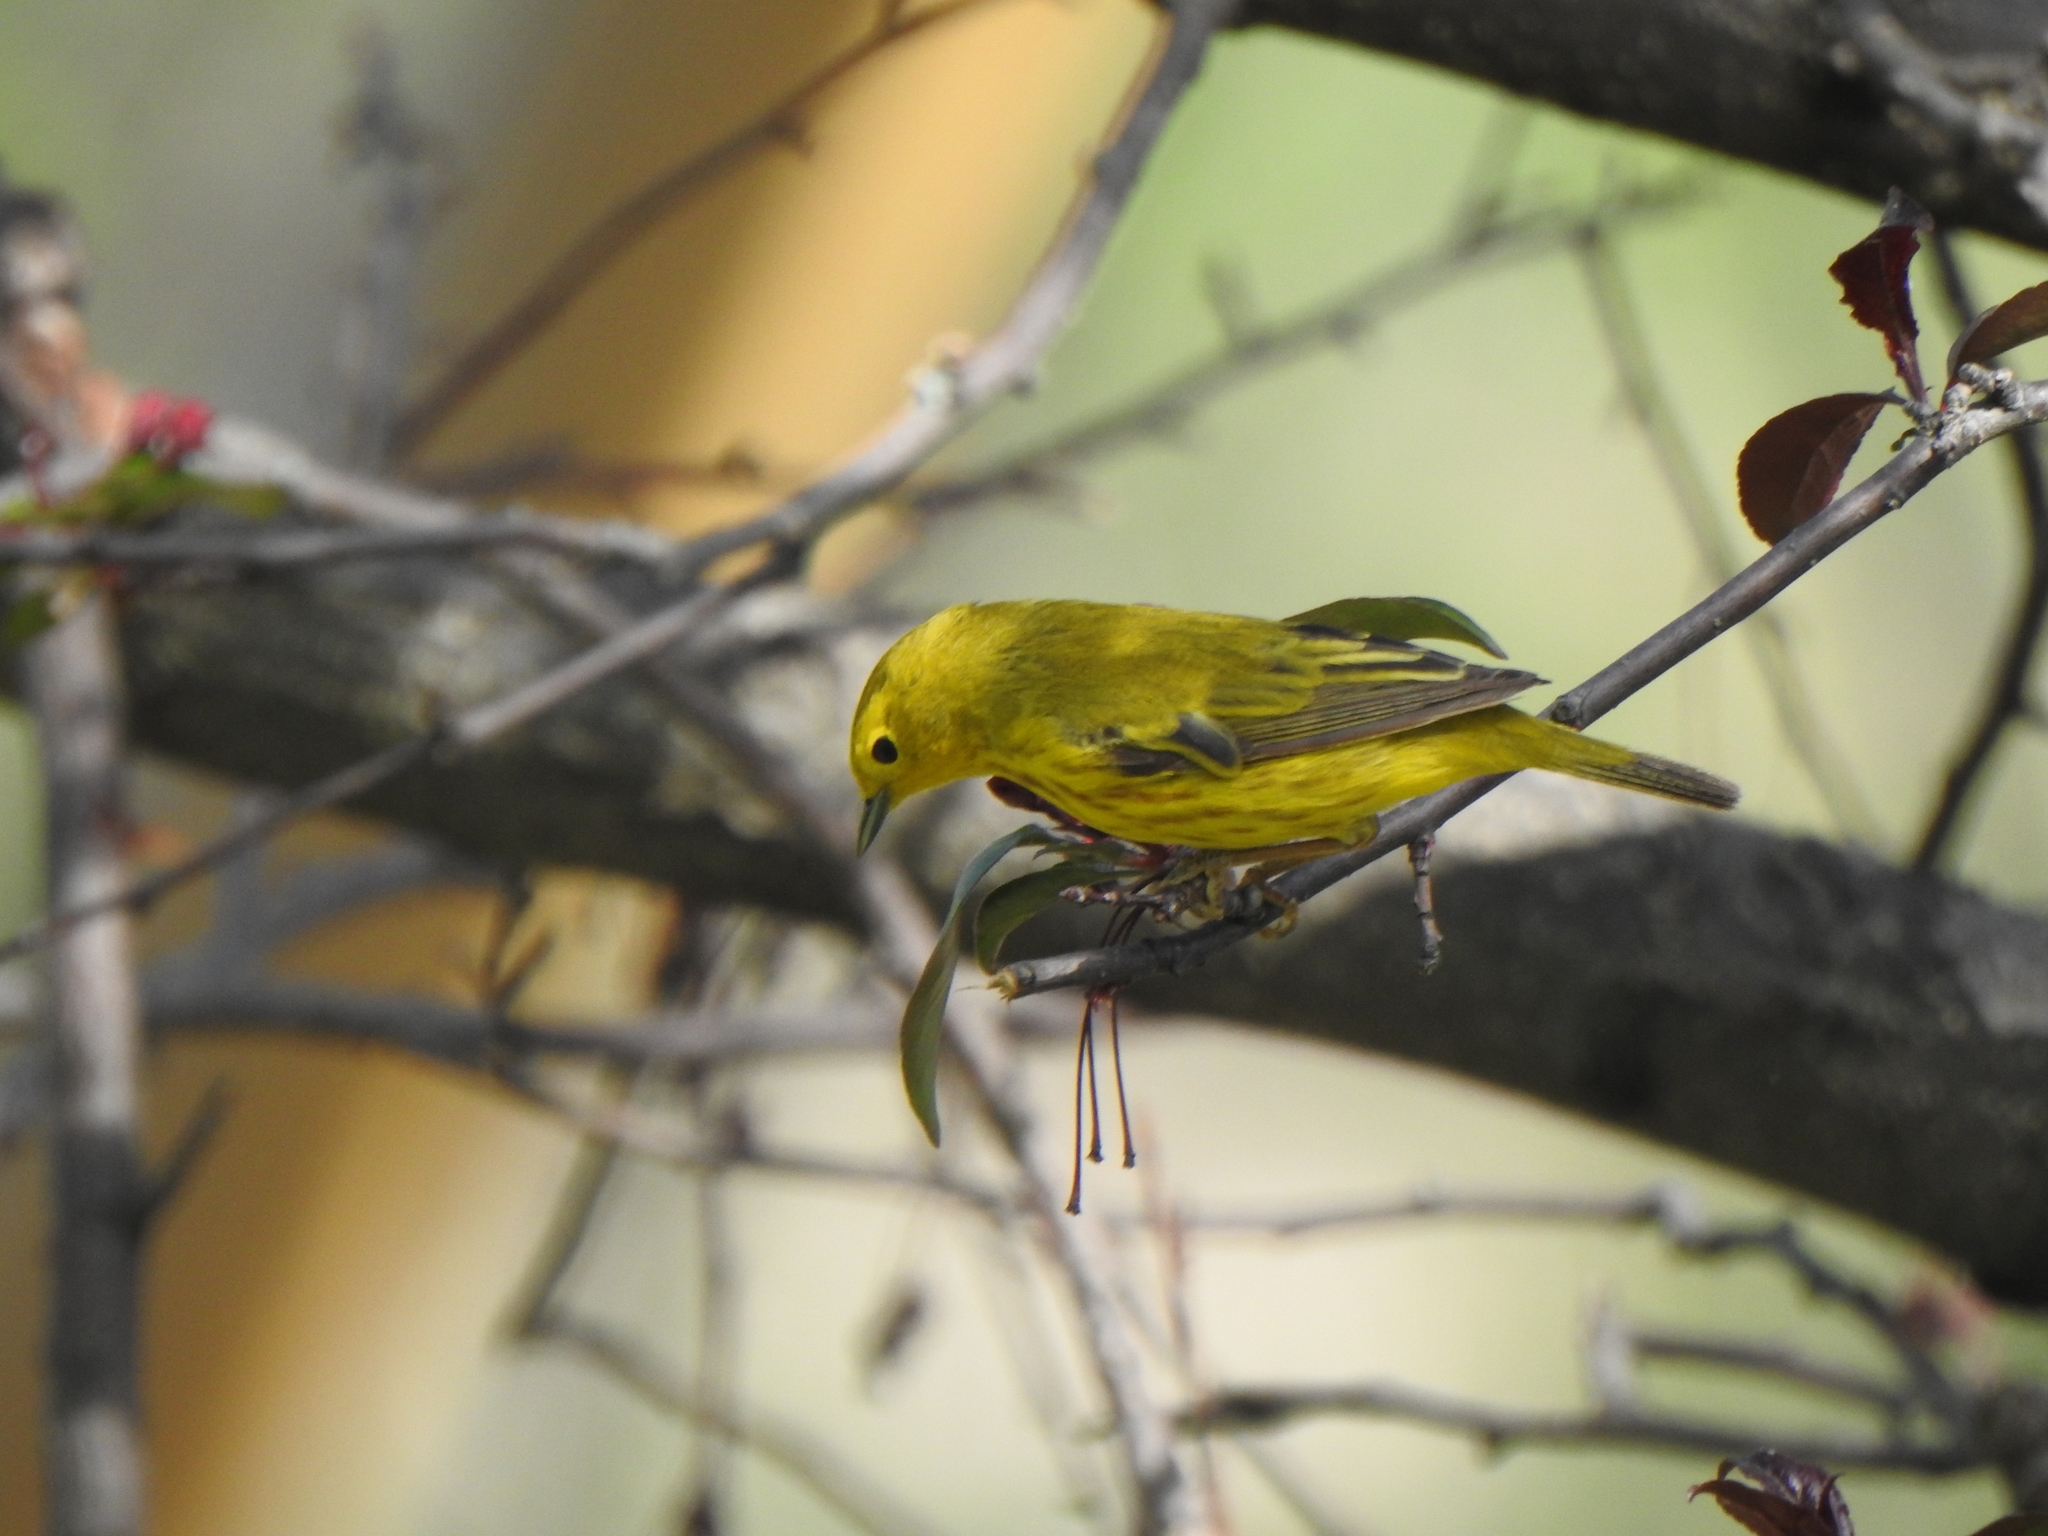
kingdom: Animalia
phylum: Chordata
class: Aves
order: Passeriformes
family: Parulidae
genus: Setophaga
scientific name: Setophaga petechia
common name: Yellow warbler
